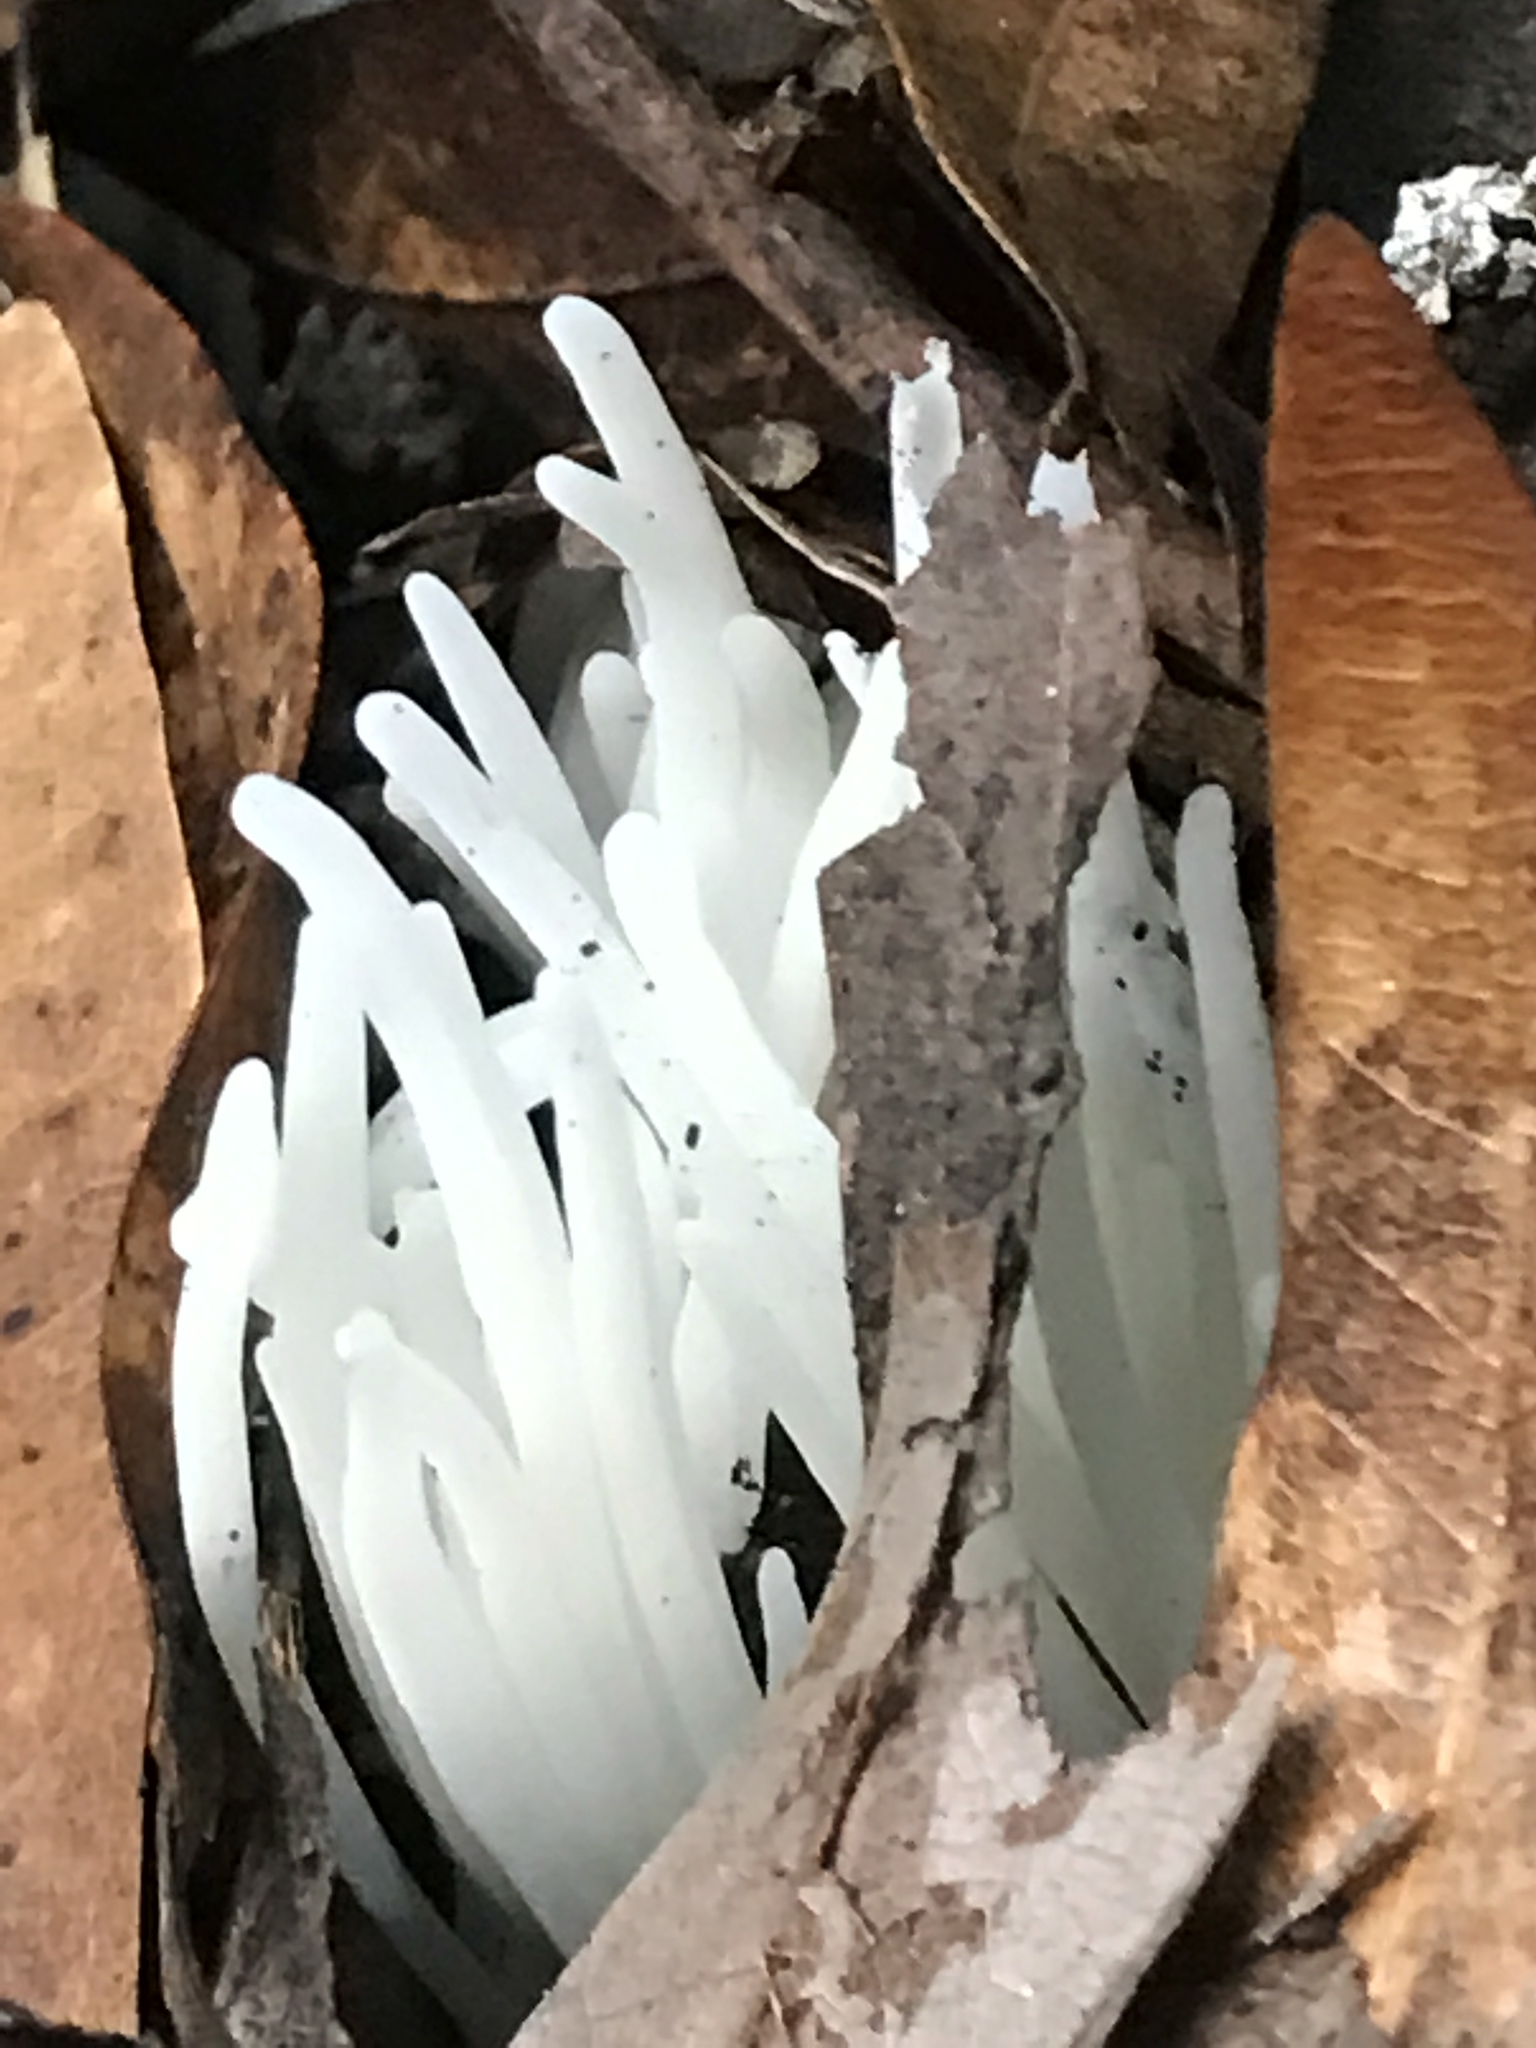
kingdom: Fungi
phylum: Basidiomycota
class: Agaricomycetes
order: Agaricales
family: Clavariaceae
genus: Clavaria
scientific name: Clavaria fragilis
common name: White spindles
